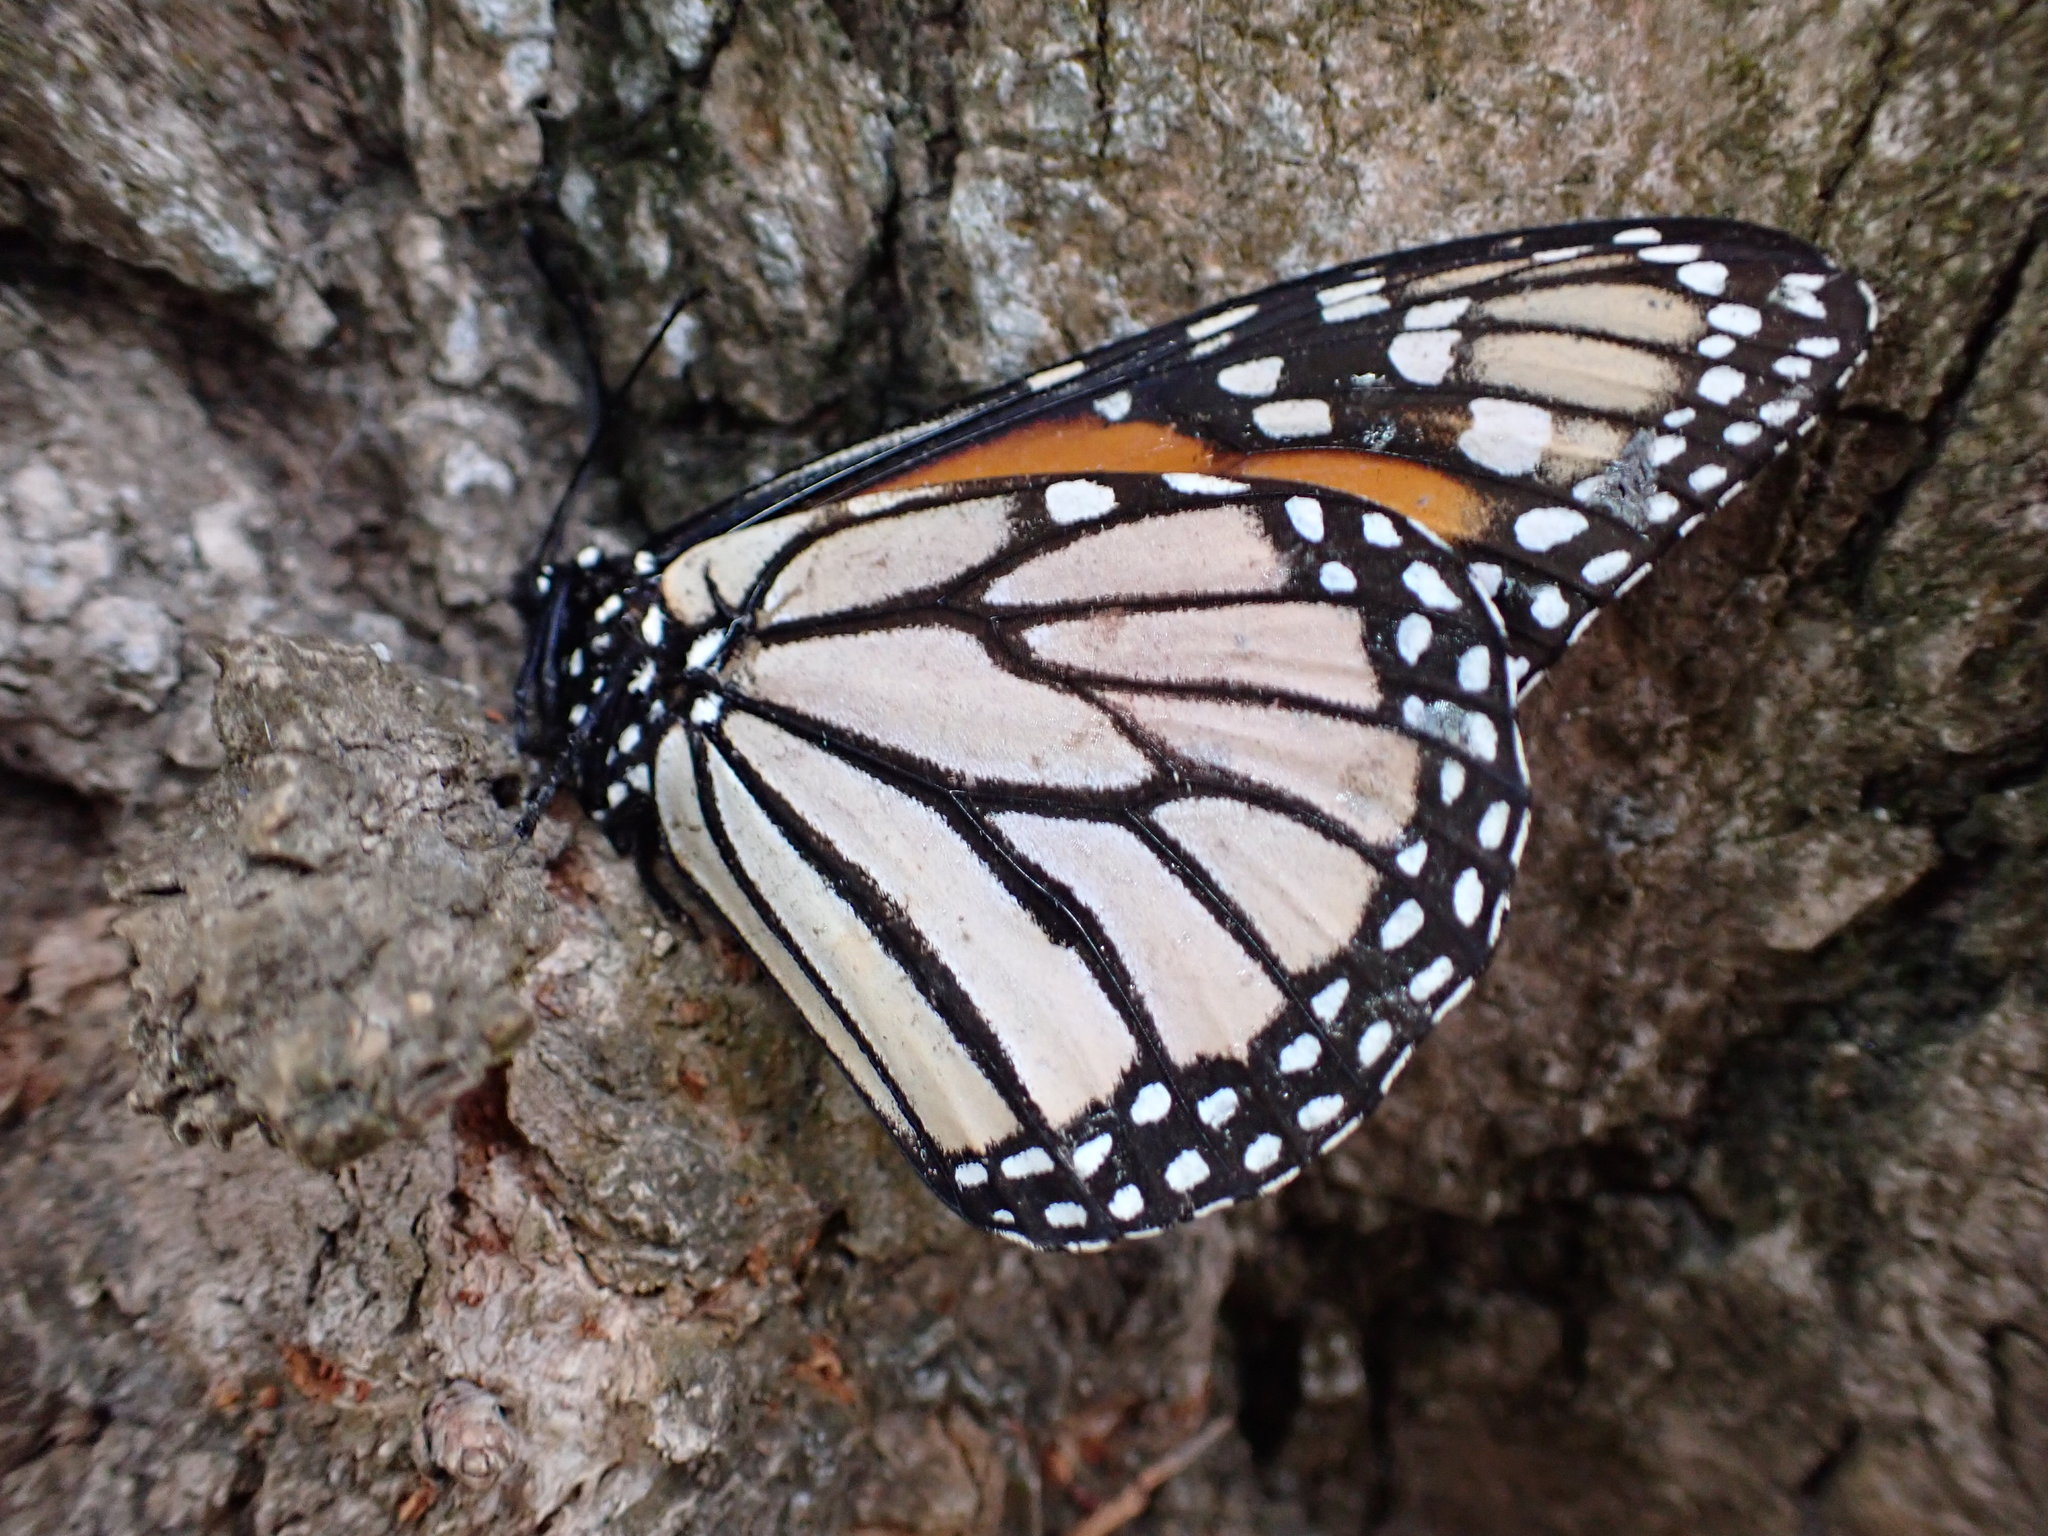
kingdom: Animalia
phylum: Arthropoda
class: Insecta
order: Lepidoptera
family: Nymphalidae
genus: Danaus
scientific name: Danaus plexippus
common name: Monarch
